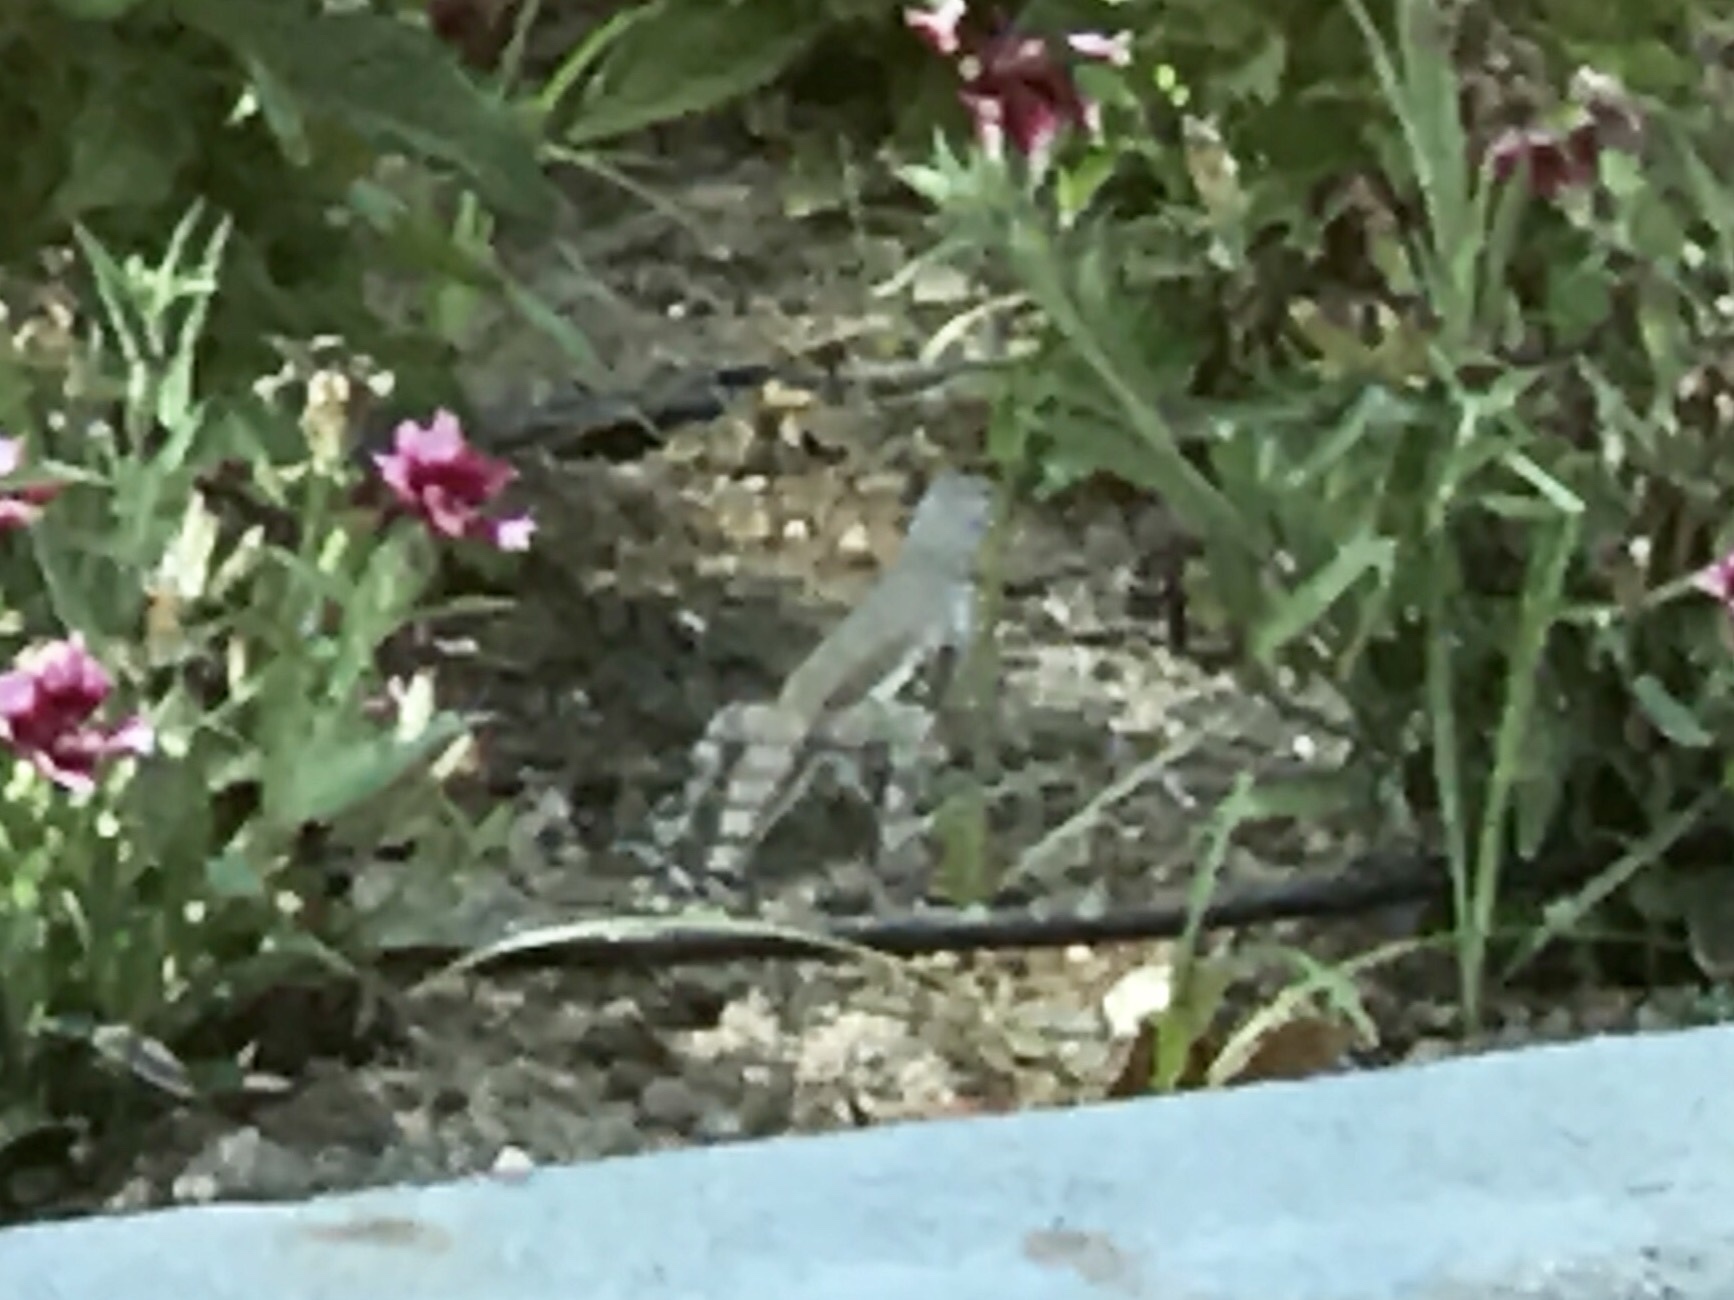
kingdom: Animalia
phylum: Chordata
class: Squamata
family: Phrynosomatidae
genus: Callisaurus
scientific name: Callisaurus draconoides
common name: Zebra-tailed lizard
